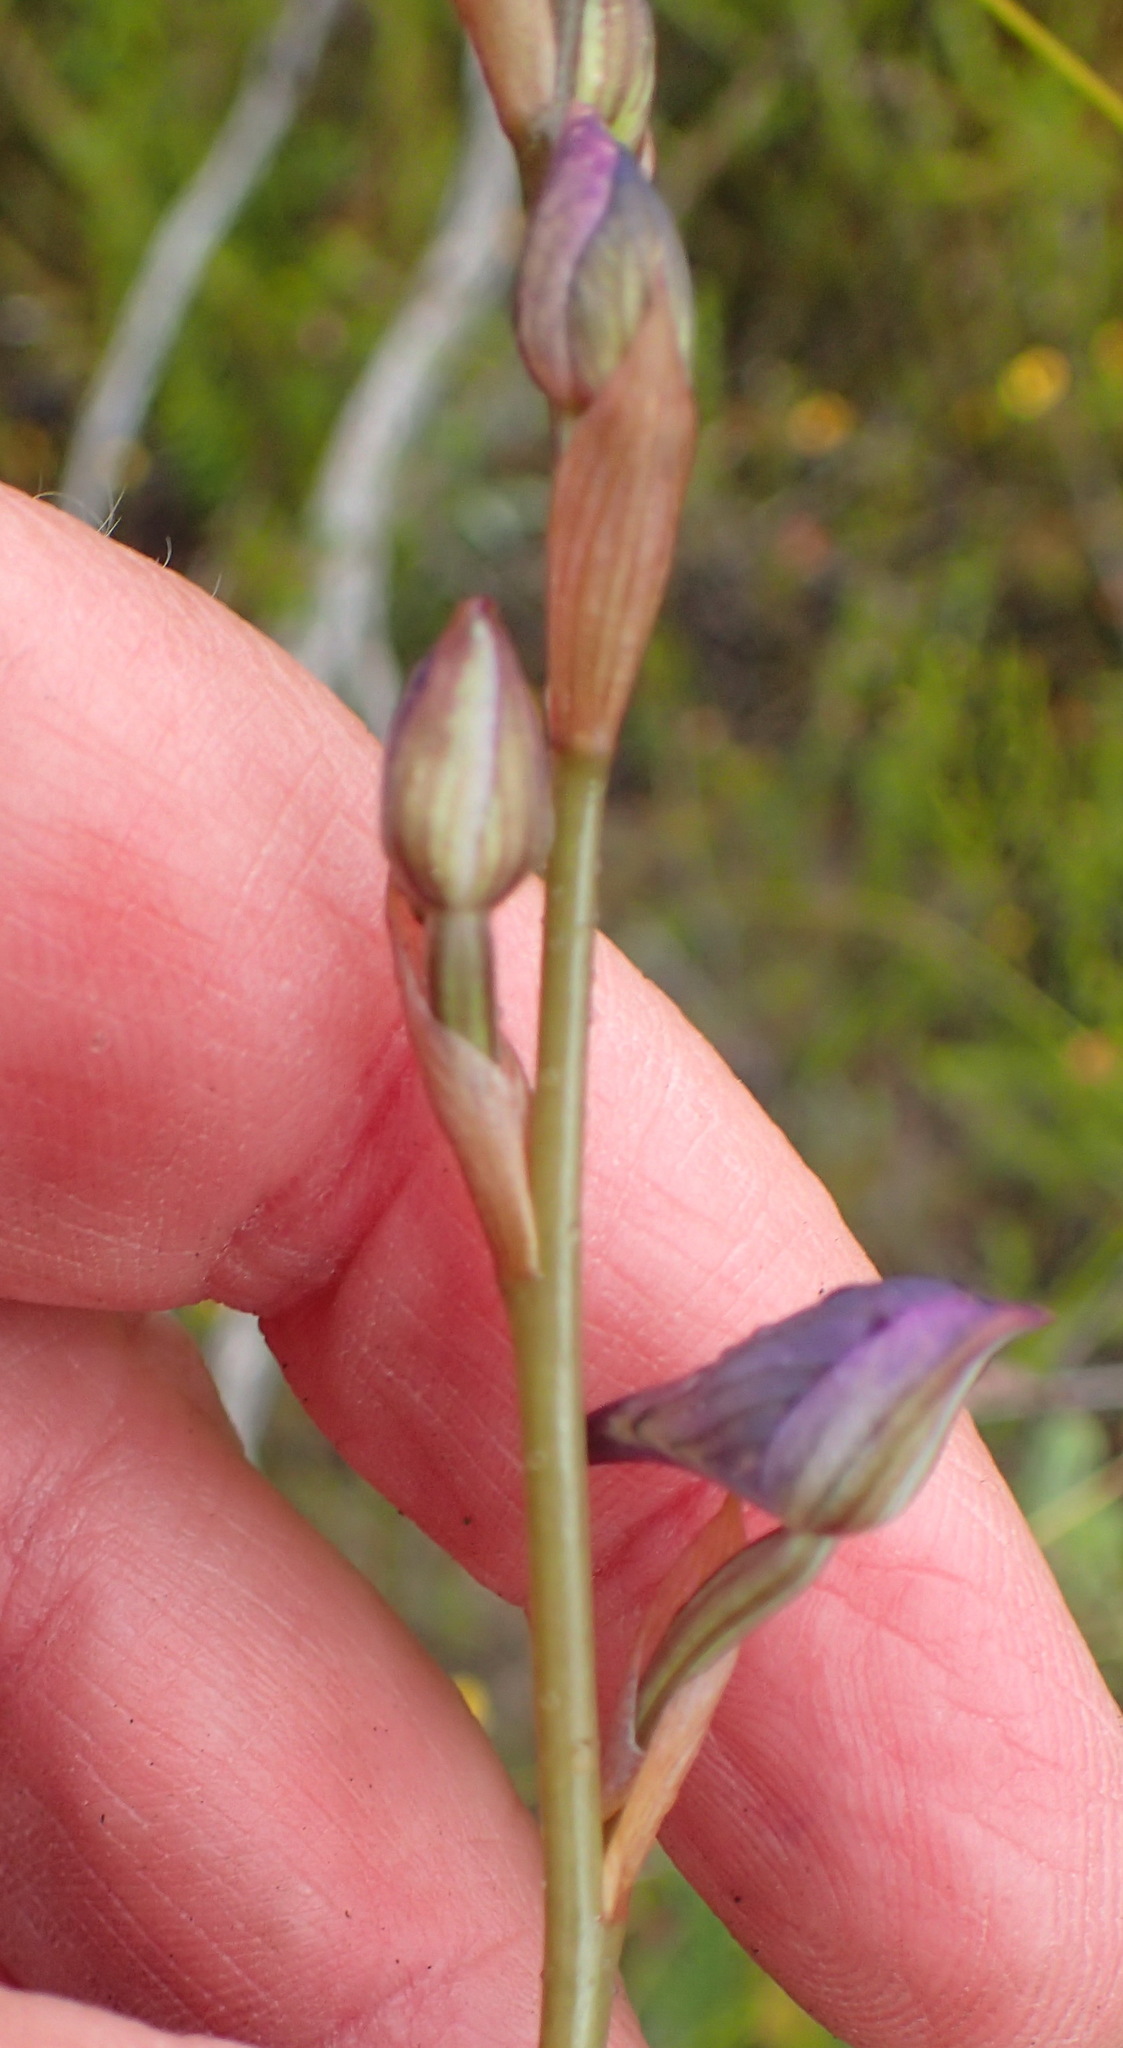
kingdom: Plantae
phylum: Tracheophyta
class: Liliopsida
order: Asparagales
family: Orchidaceae
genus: Disa
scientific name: Disa hians
